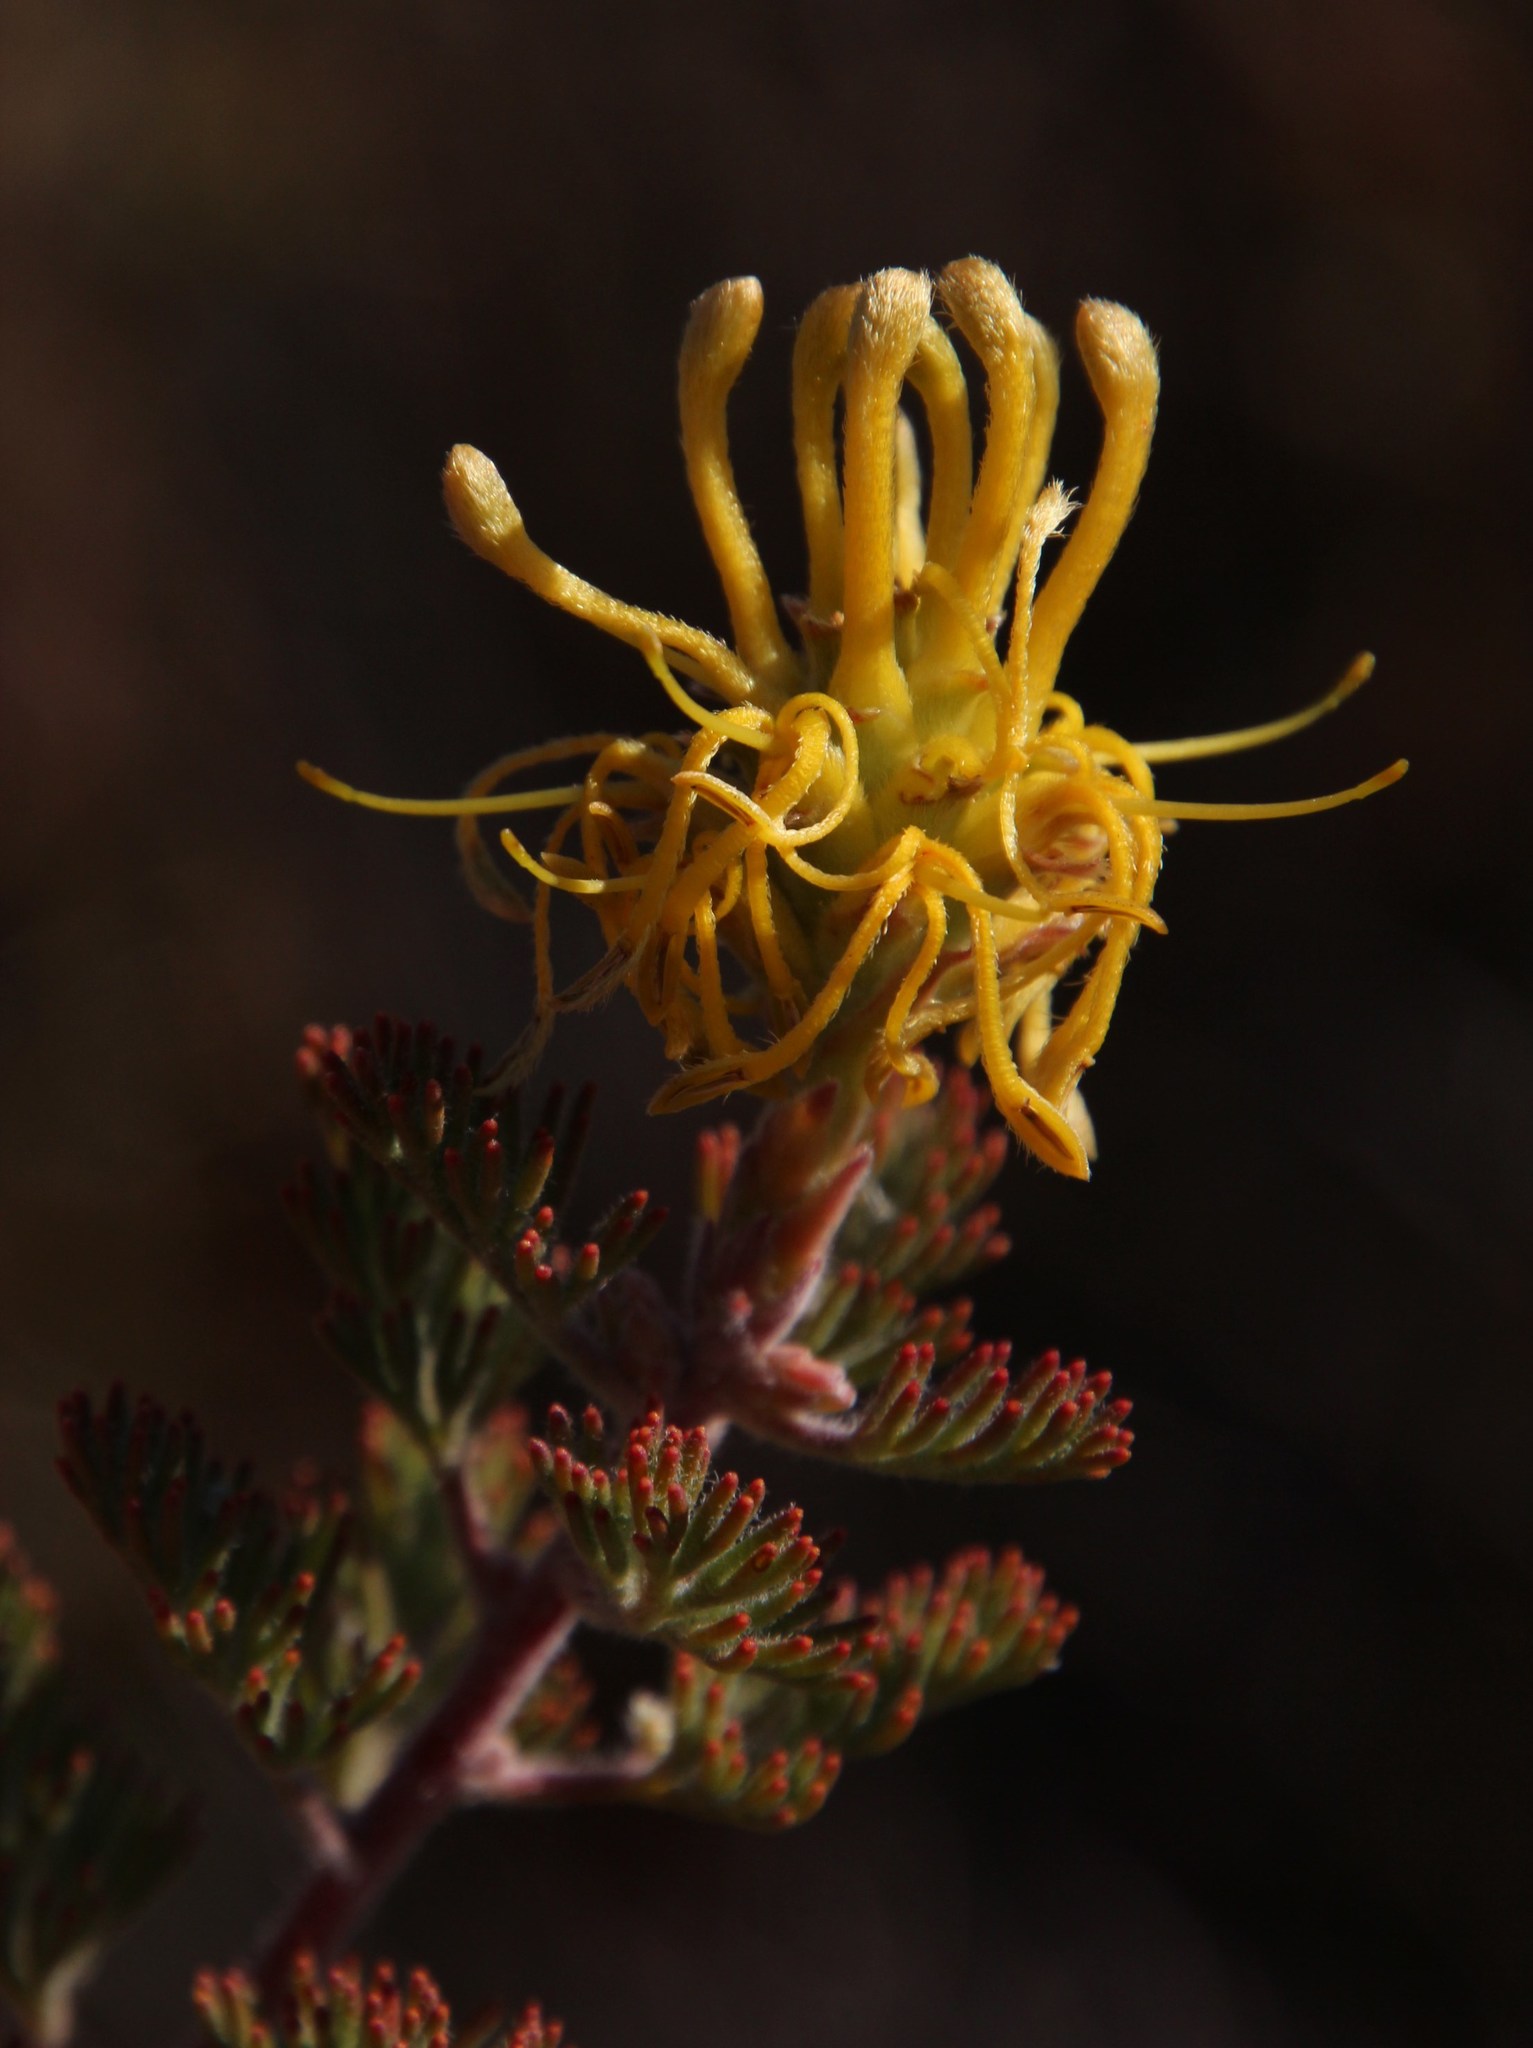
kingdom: Plantae
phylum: Tracheophyta
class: Magnoliopsida
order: Proteales
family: Proteaceae
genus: Serruria
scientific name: Serruria flava
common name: Spiderhead
